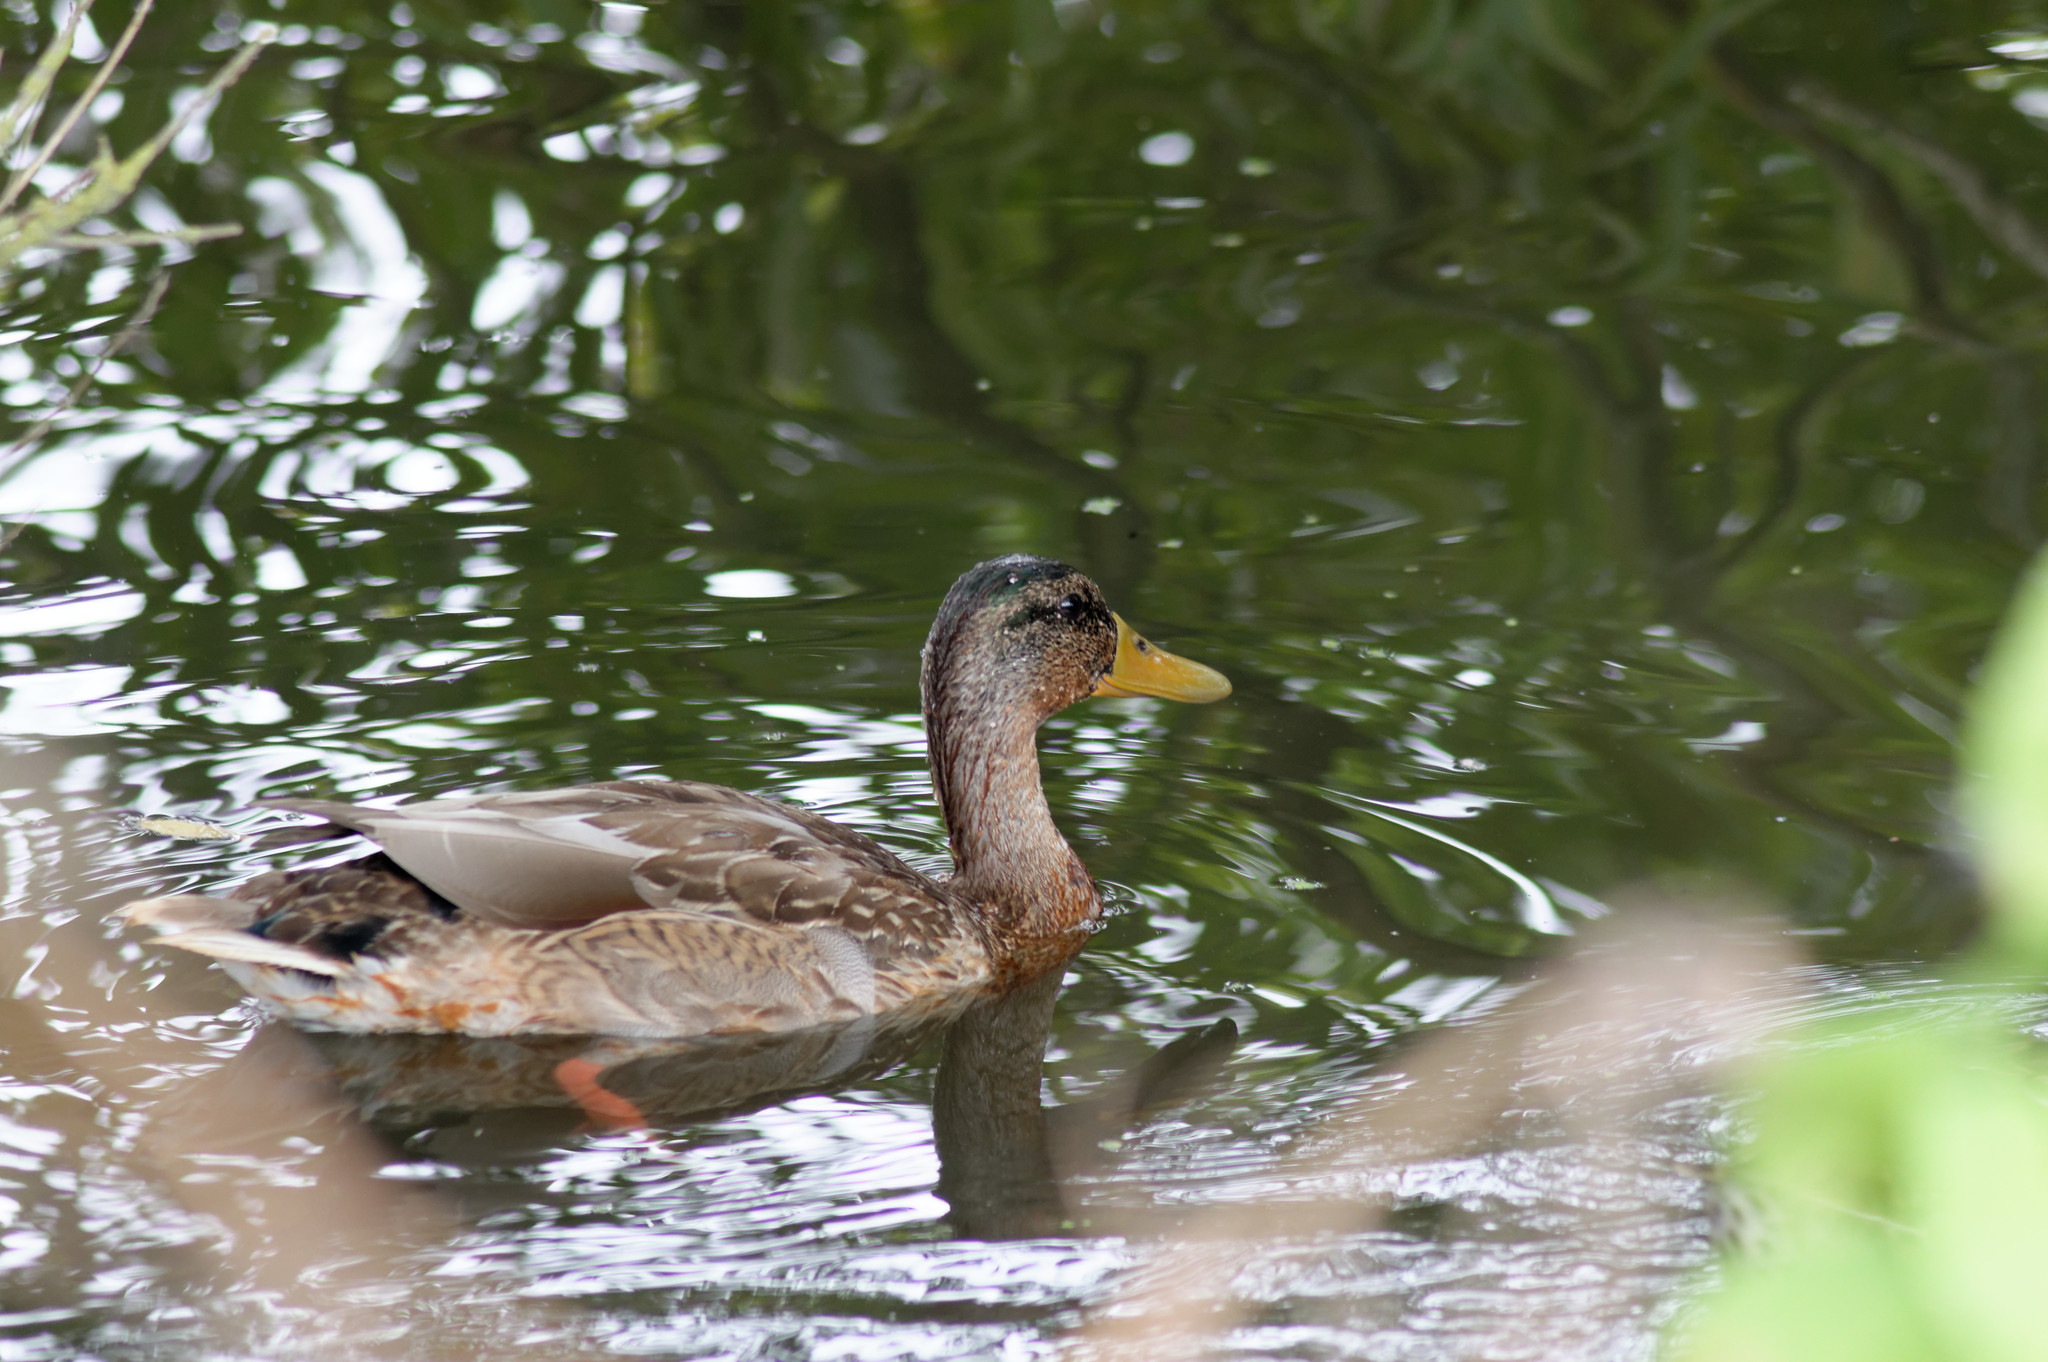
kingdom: Animalia
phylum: Chordata
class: Aves
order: Anseriformes
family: Anatidae
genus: Anas
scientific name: Anas platyrhynchos
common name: Mallard
